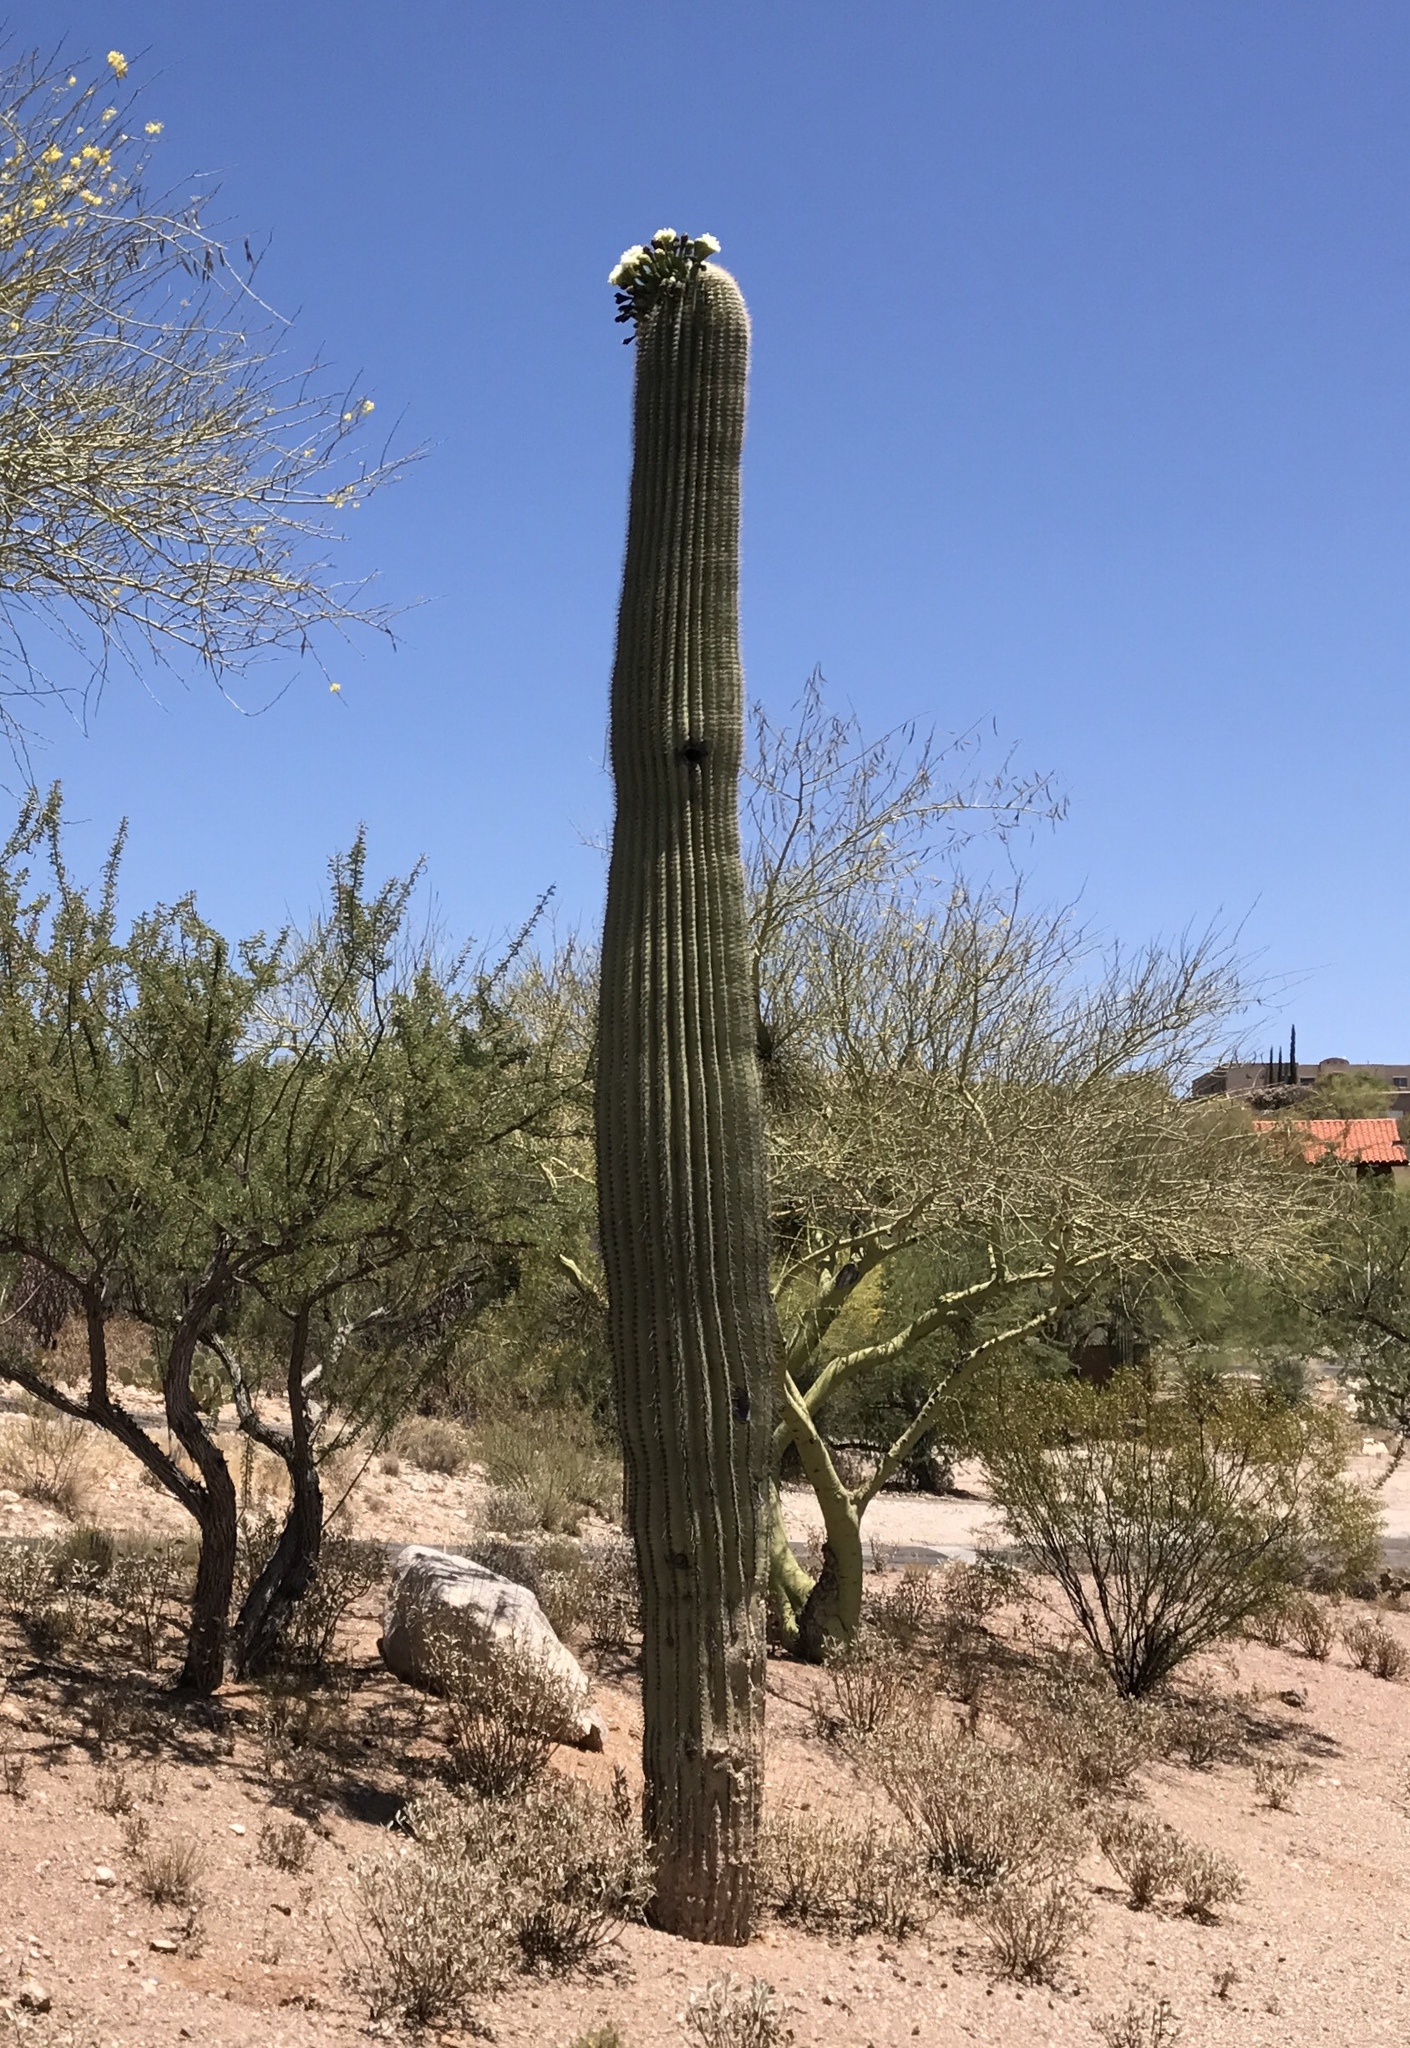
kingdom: Plantae
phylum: Tracheophyta
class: Magnoliopsida
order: Caryophyllales
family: Cactaceae
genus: Carnegiea
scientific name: Carnegiea gigantea
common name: Saguaro
